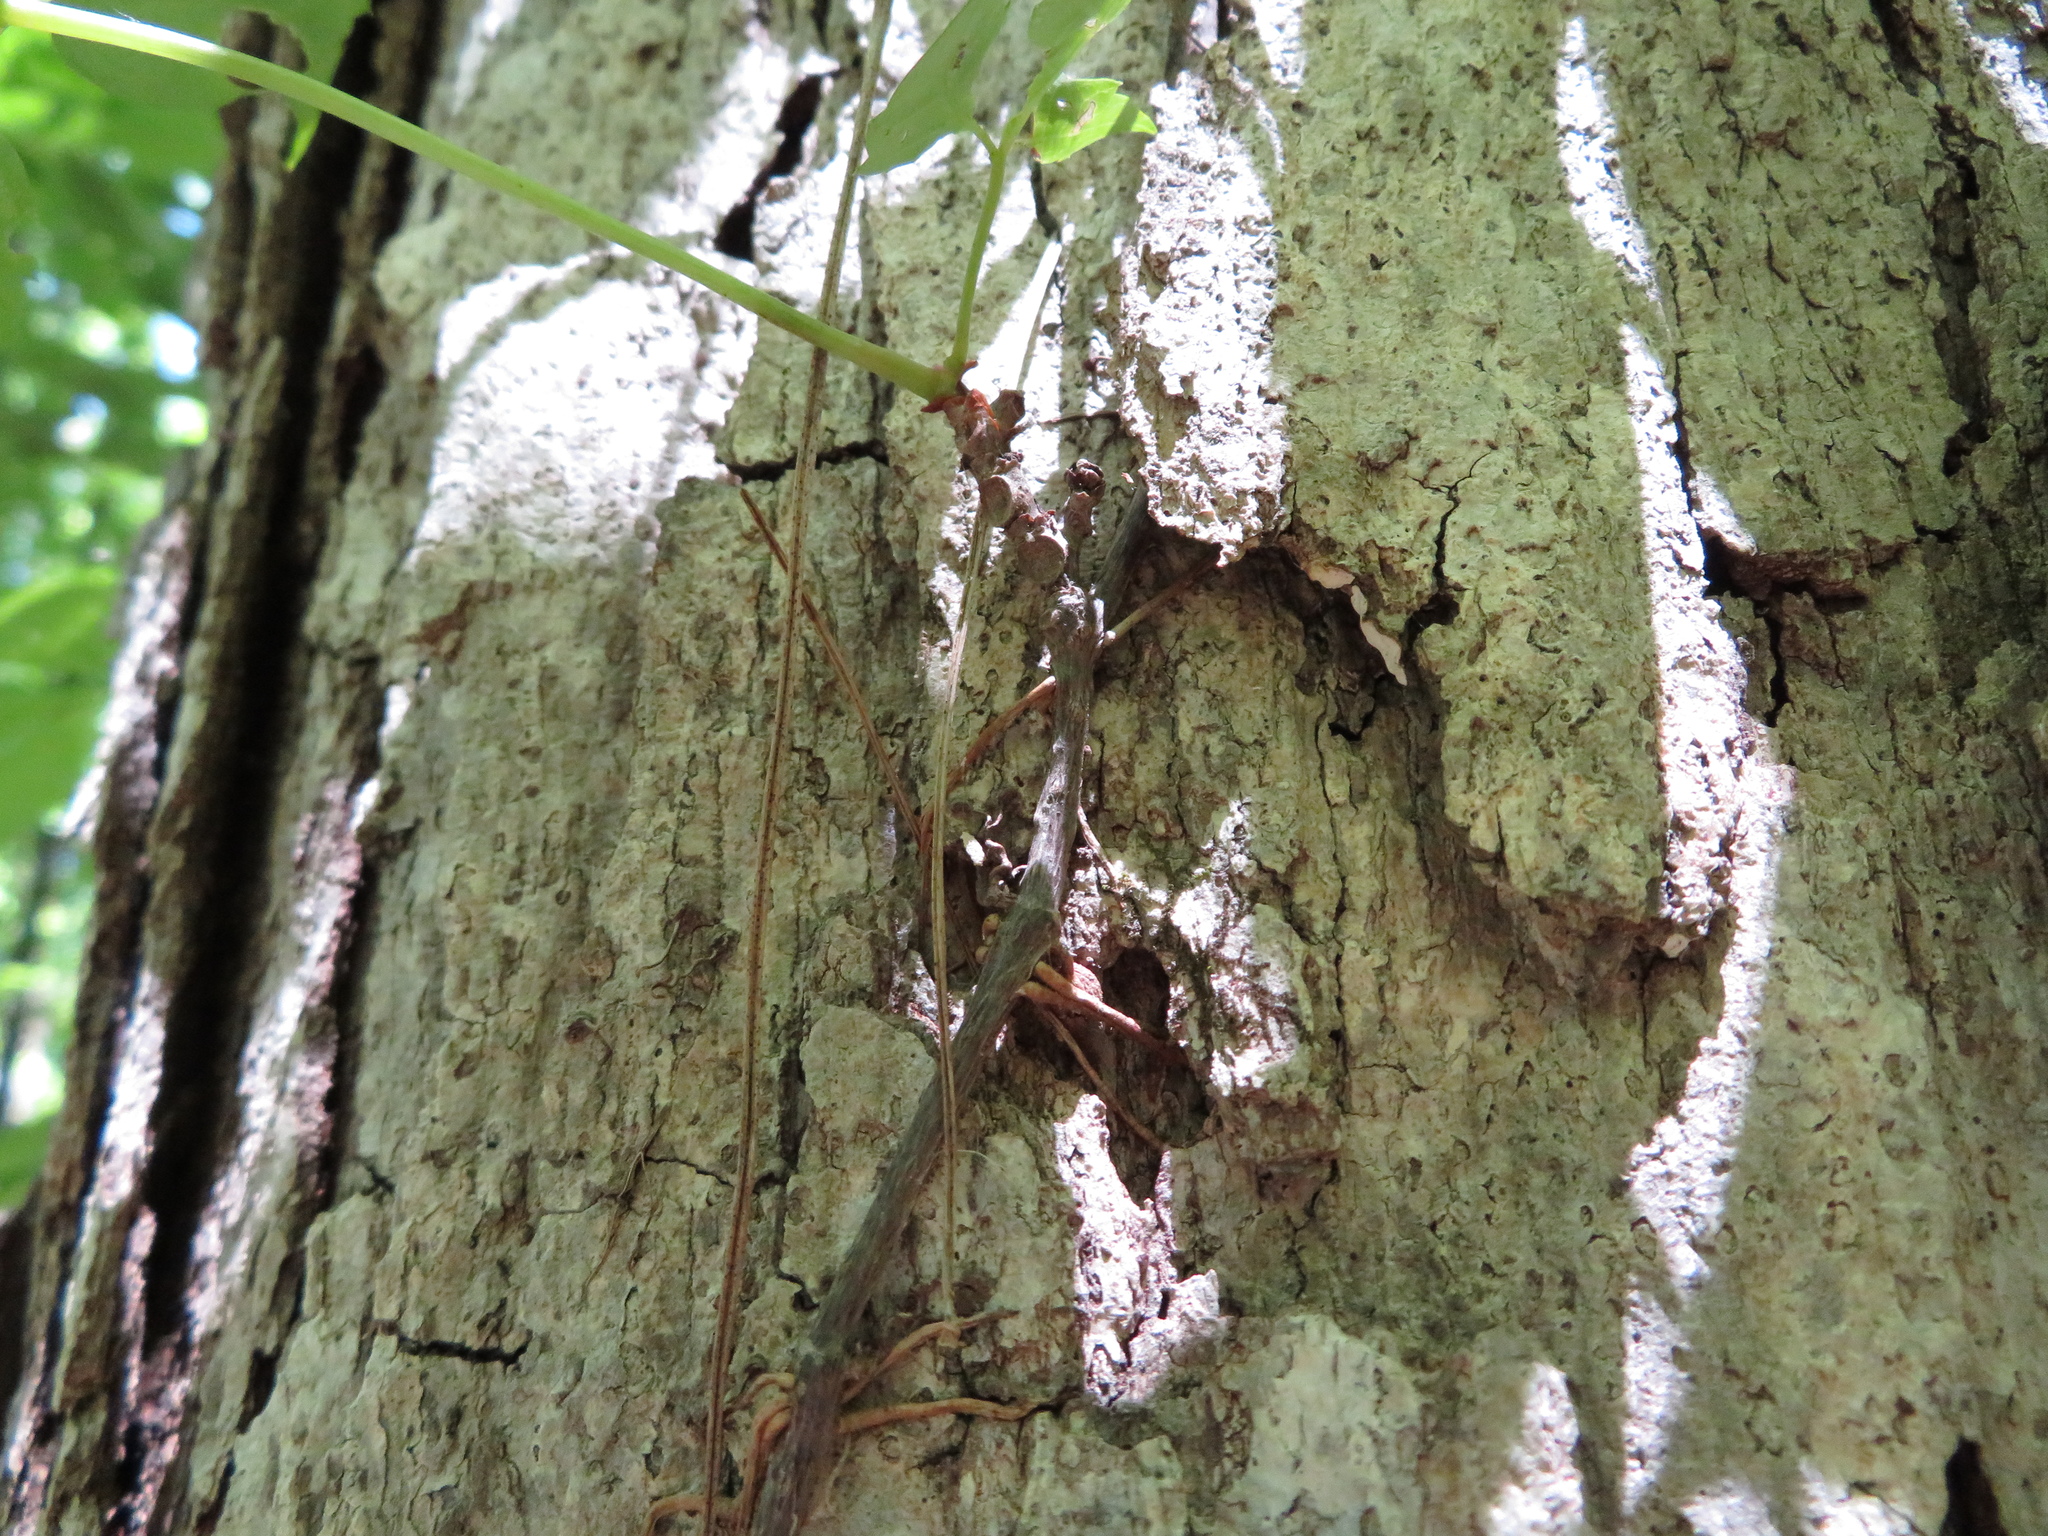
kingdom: Plantae
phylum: Tracheophyta
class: Magnoliopsida
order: Vitales
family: Vitaceae
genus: Parthenocissus
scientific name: Parthenocissus quinquefolia
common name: Virginia-creeper
